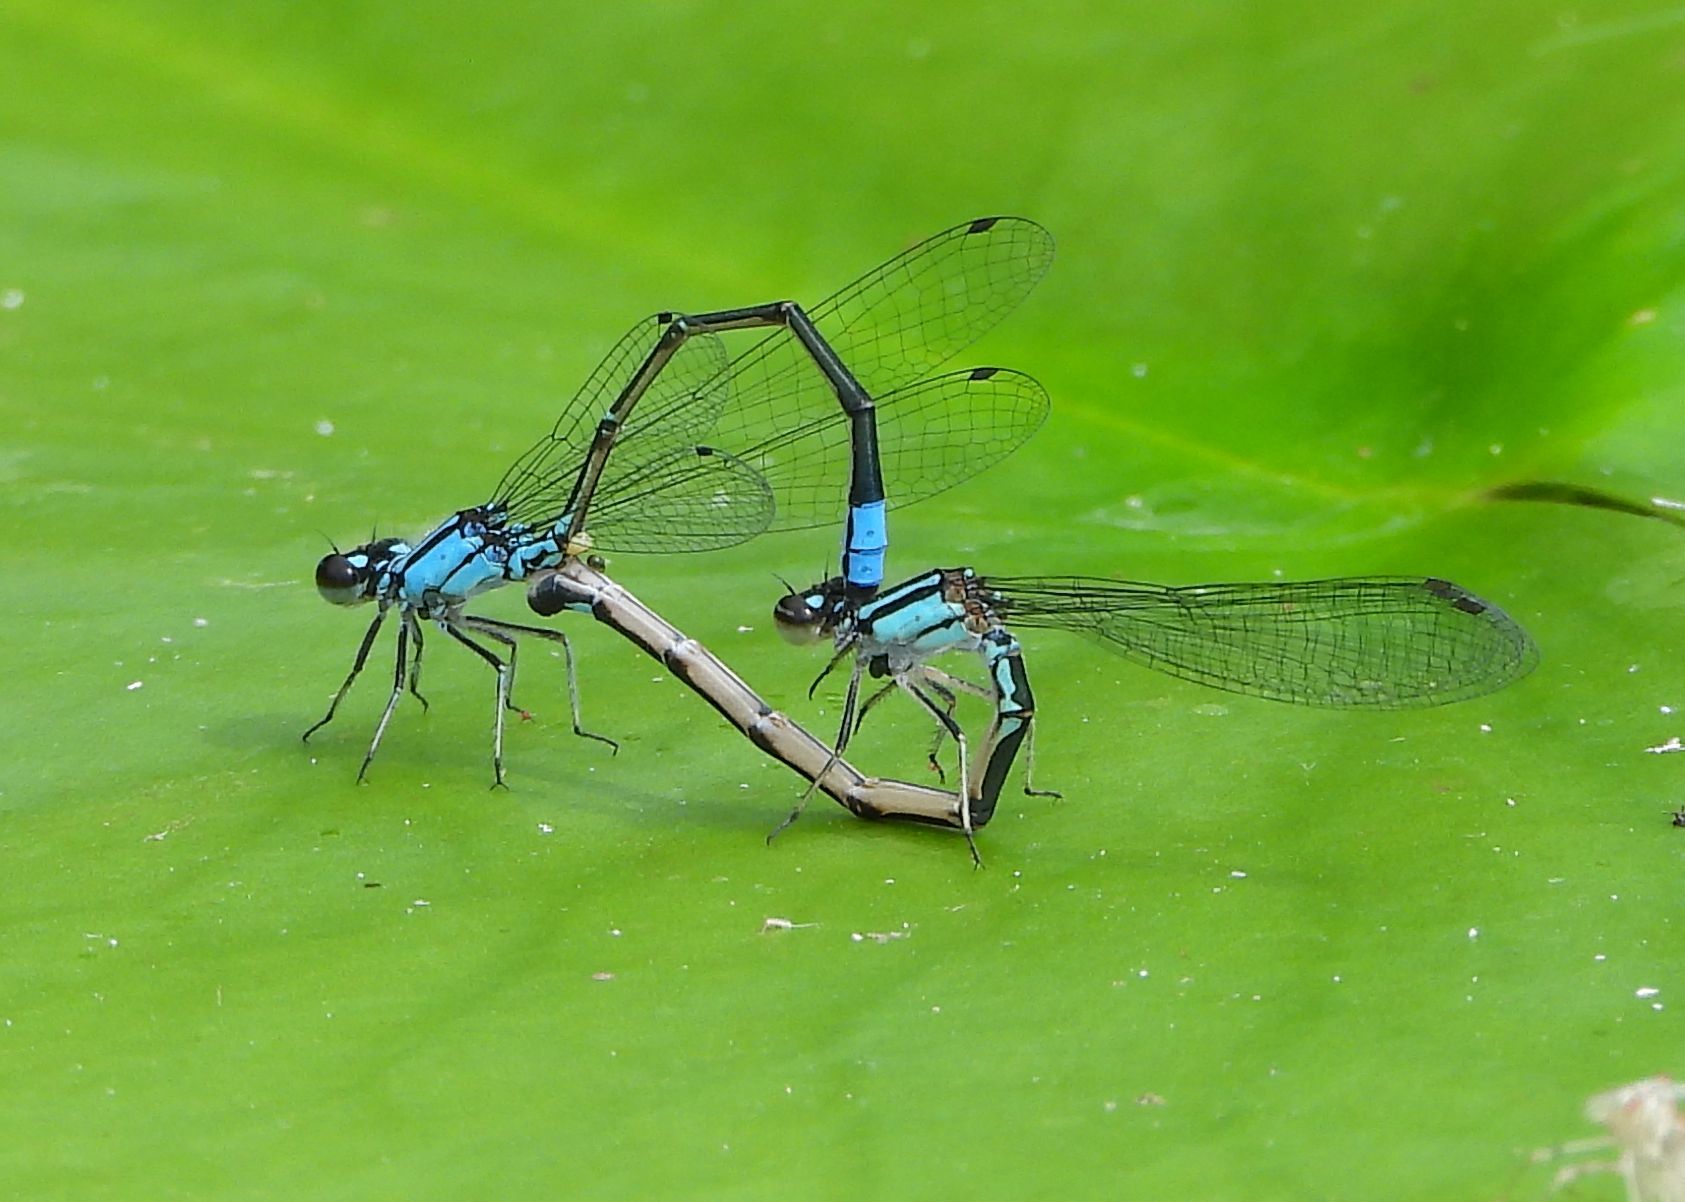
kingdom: Animalia
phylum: Arthropoda
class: Insecta
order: Odonata
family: Coenagrionidae
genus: Enallagma
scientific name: Enallagma geminatum
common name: Skimming bluet
